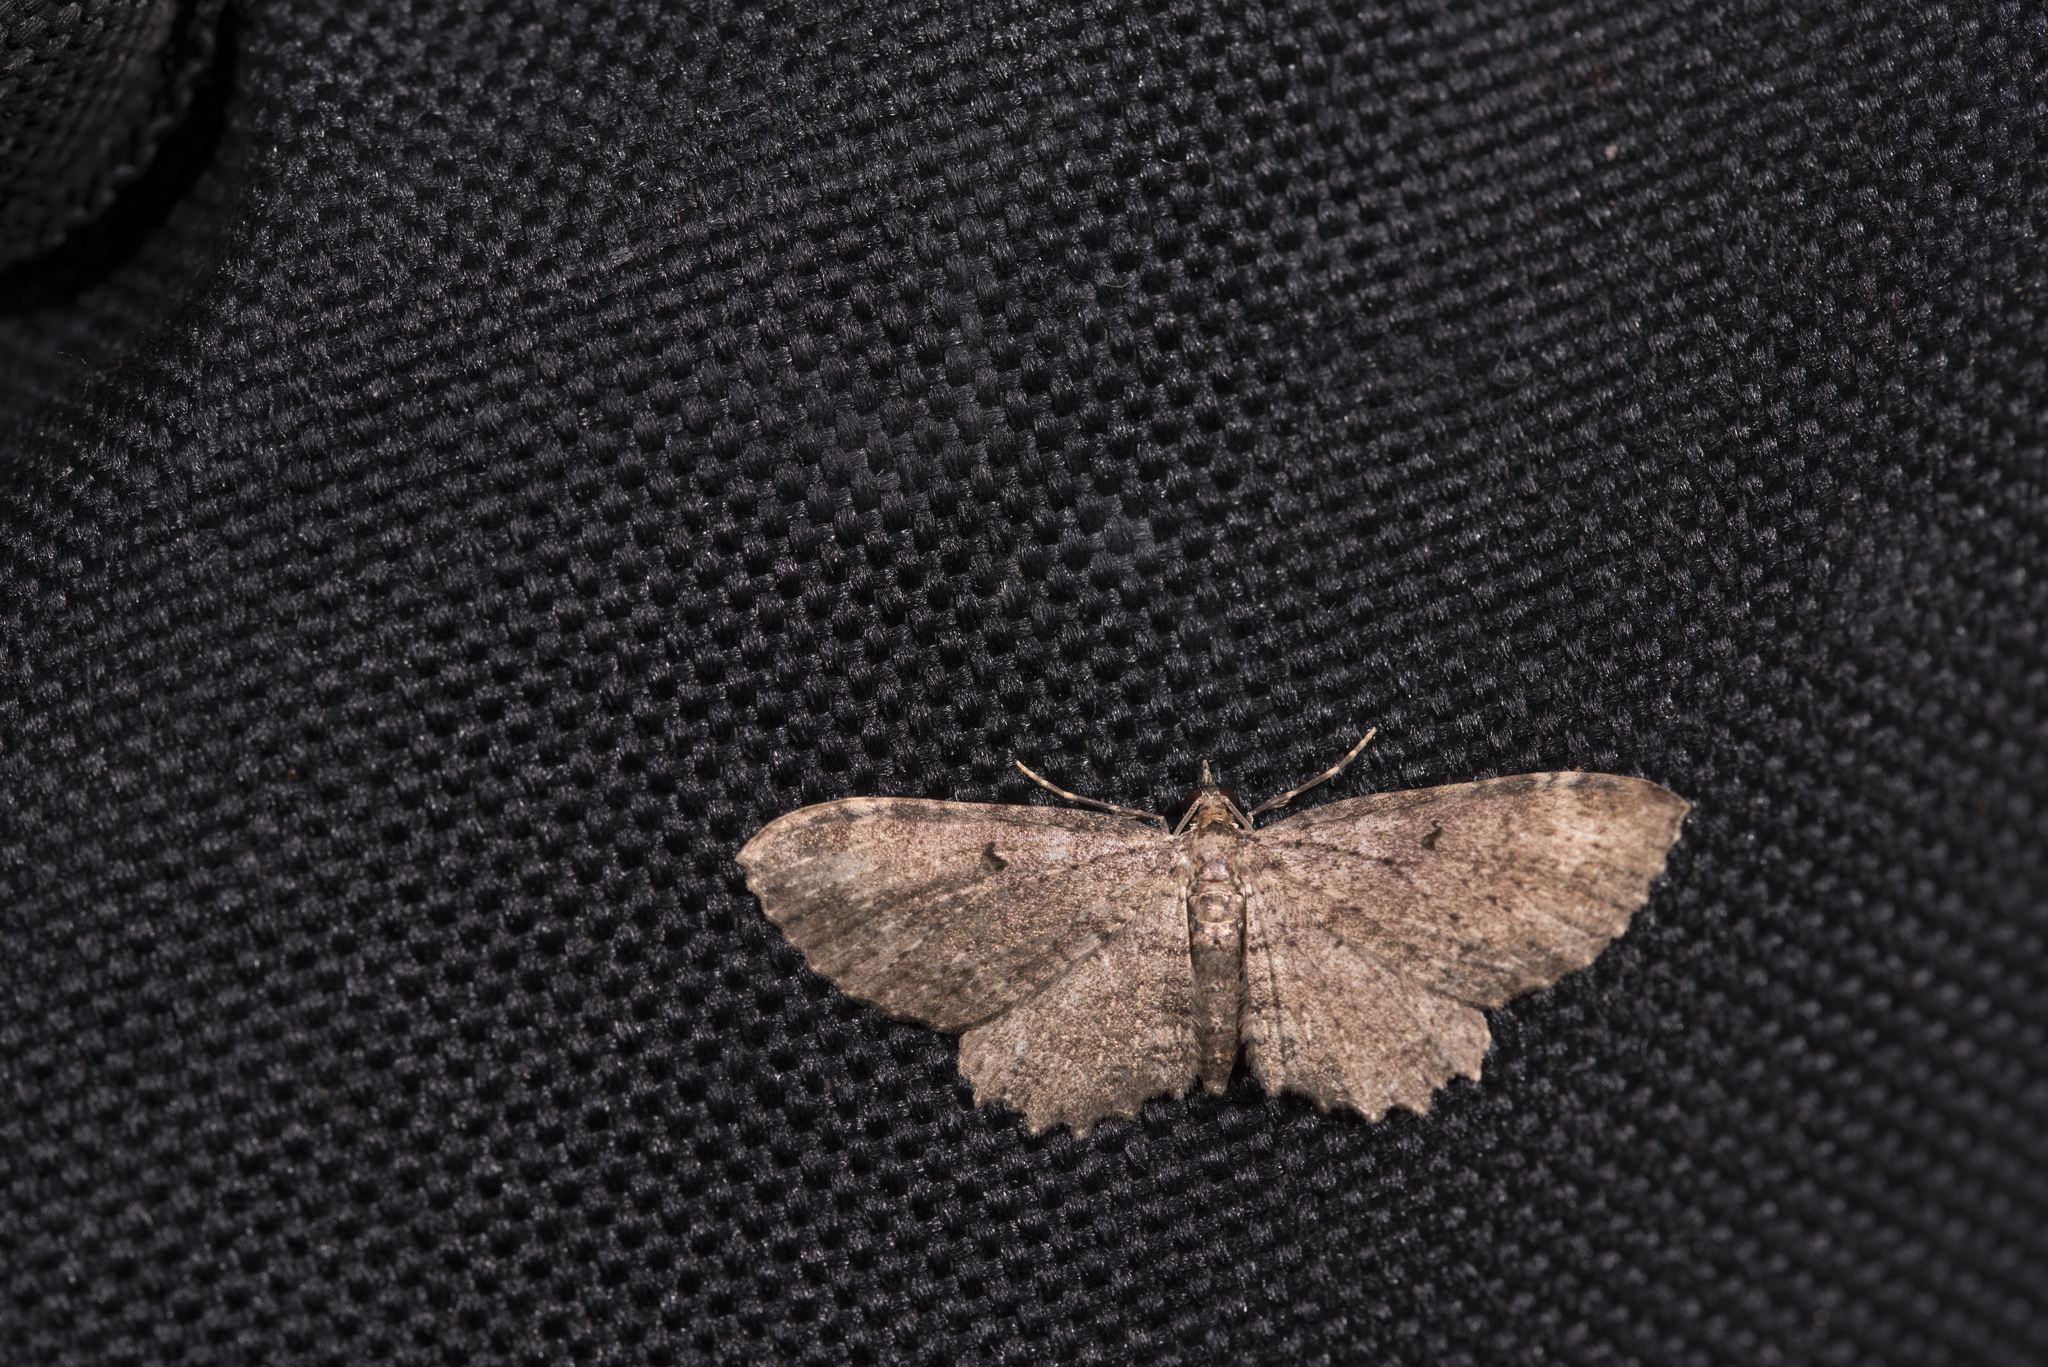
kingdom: Animalia
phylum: Arthropoda
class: Insecta
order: Lepidoptera
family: Geometridae
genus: Collix
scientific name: Collix ghosha
